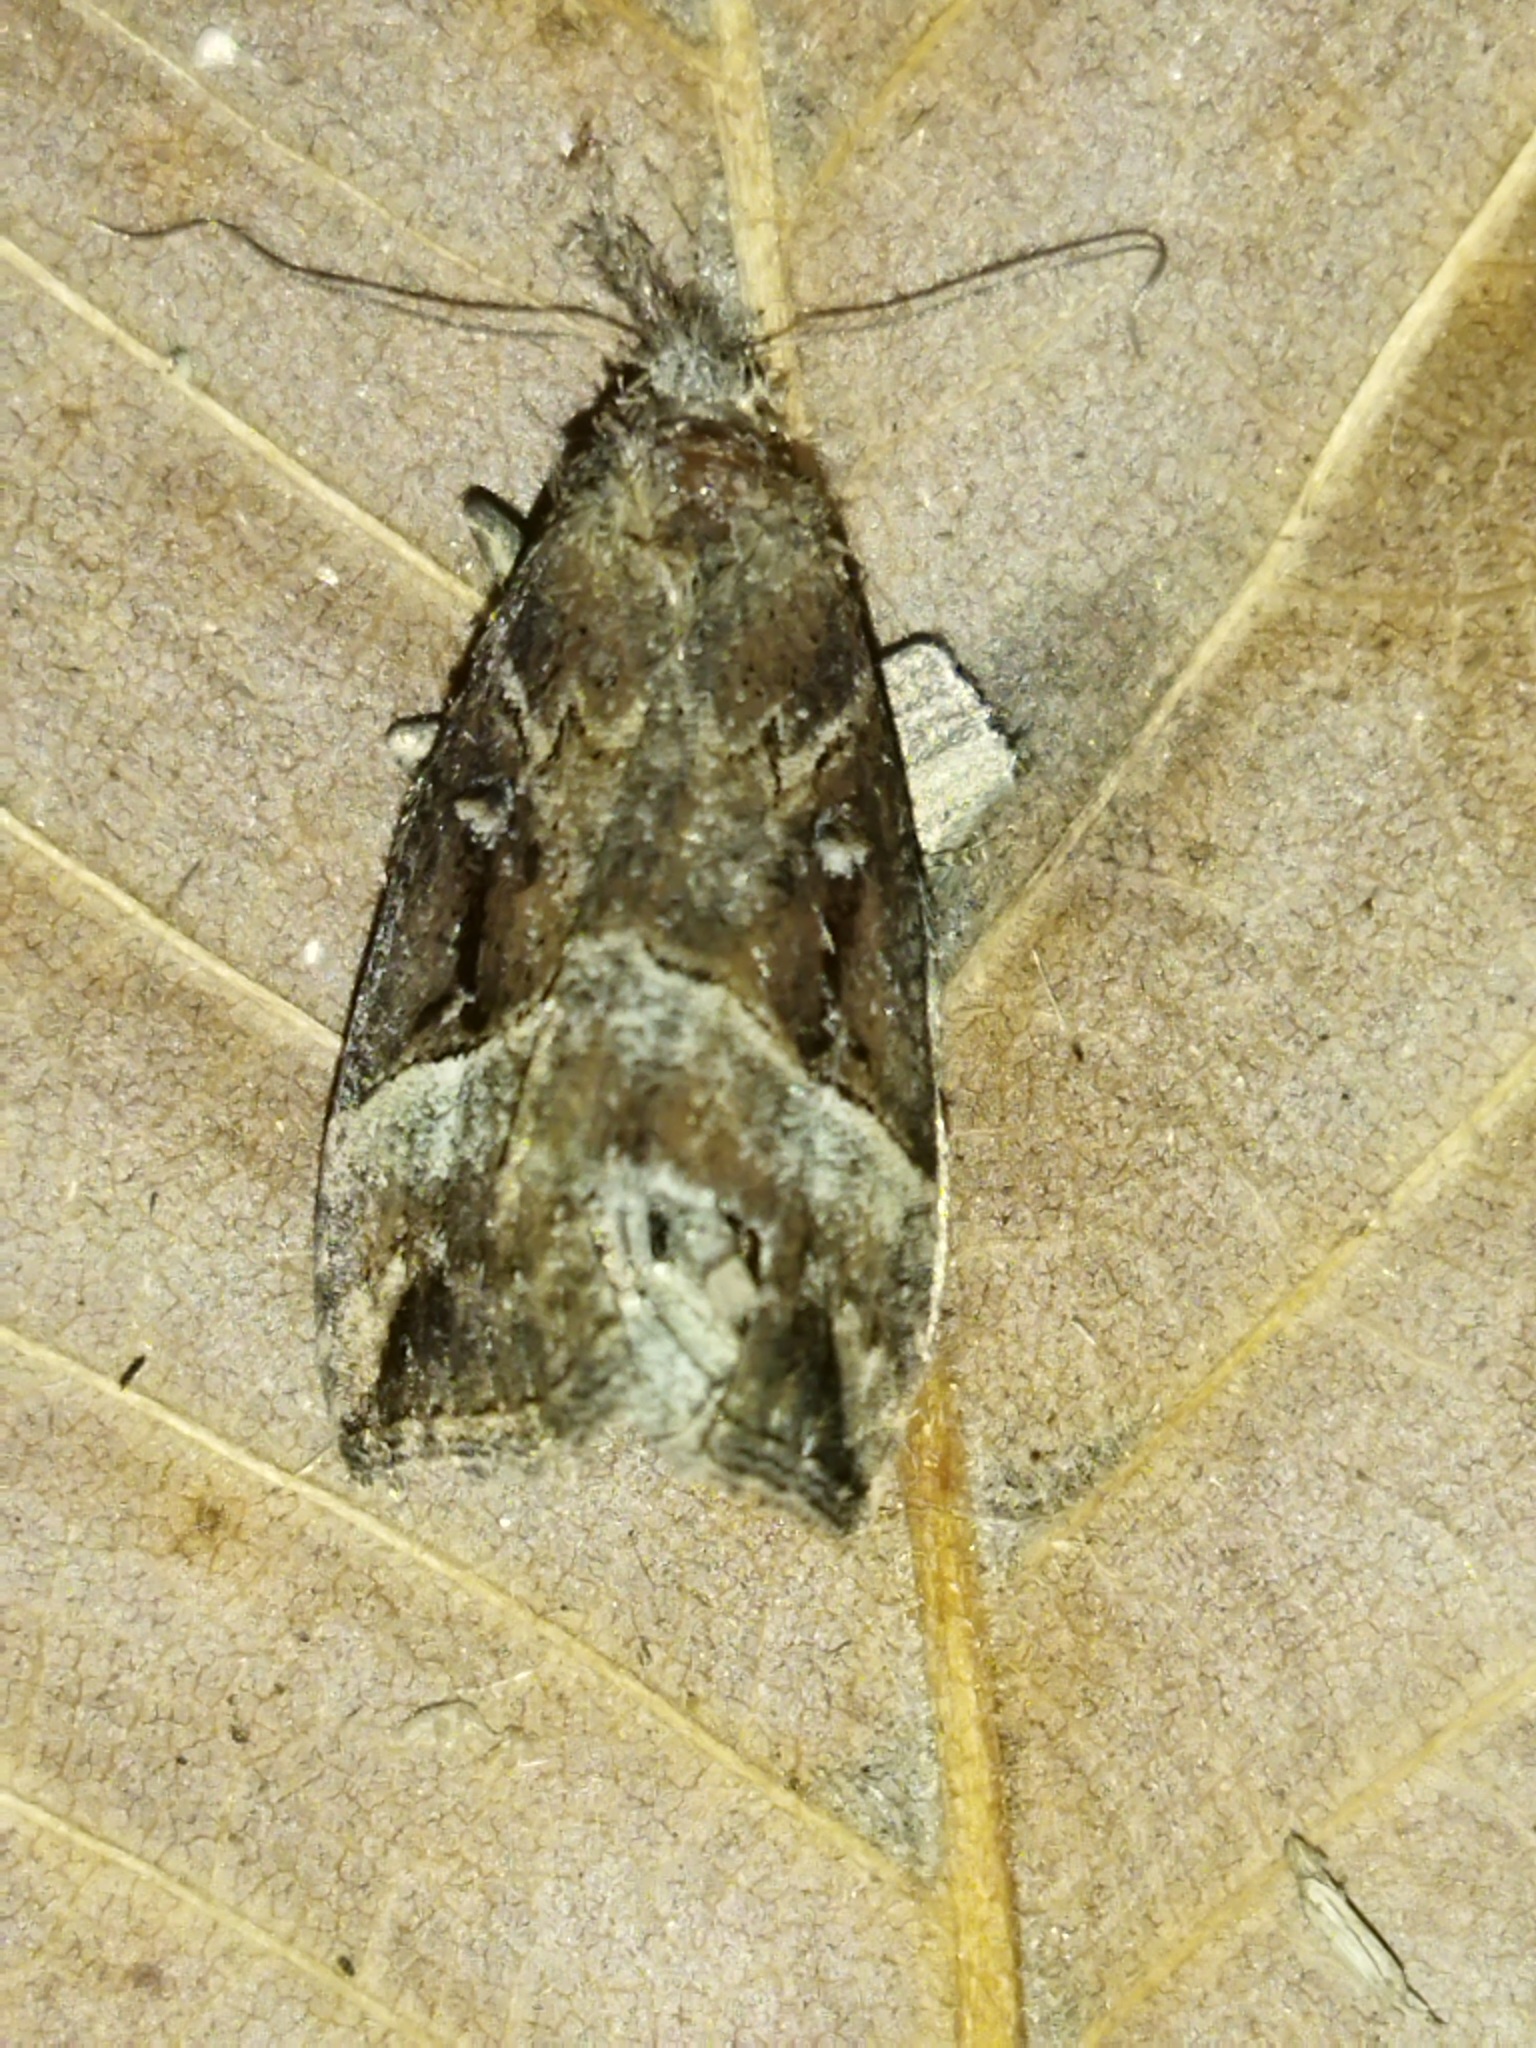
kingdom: Animalia
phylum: Arthropoda
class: Insecta
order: Lepidoptera
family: Erebidae
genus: Hypena
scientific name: Hypena rostralis
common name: Buttoned snout
